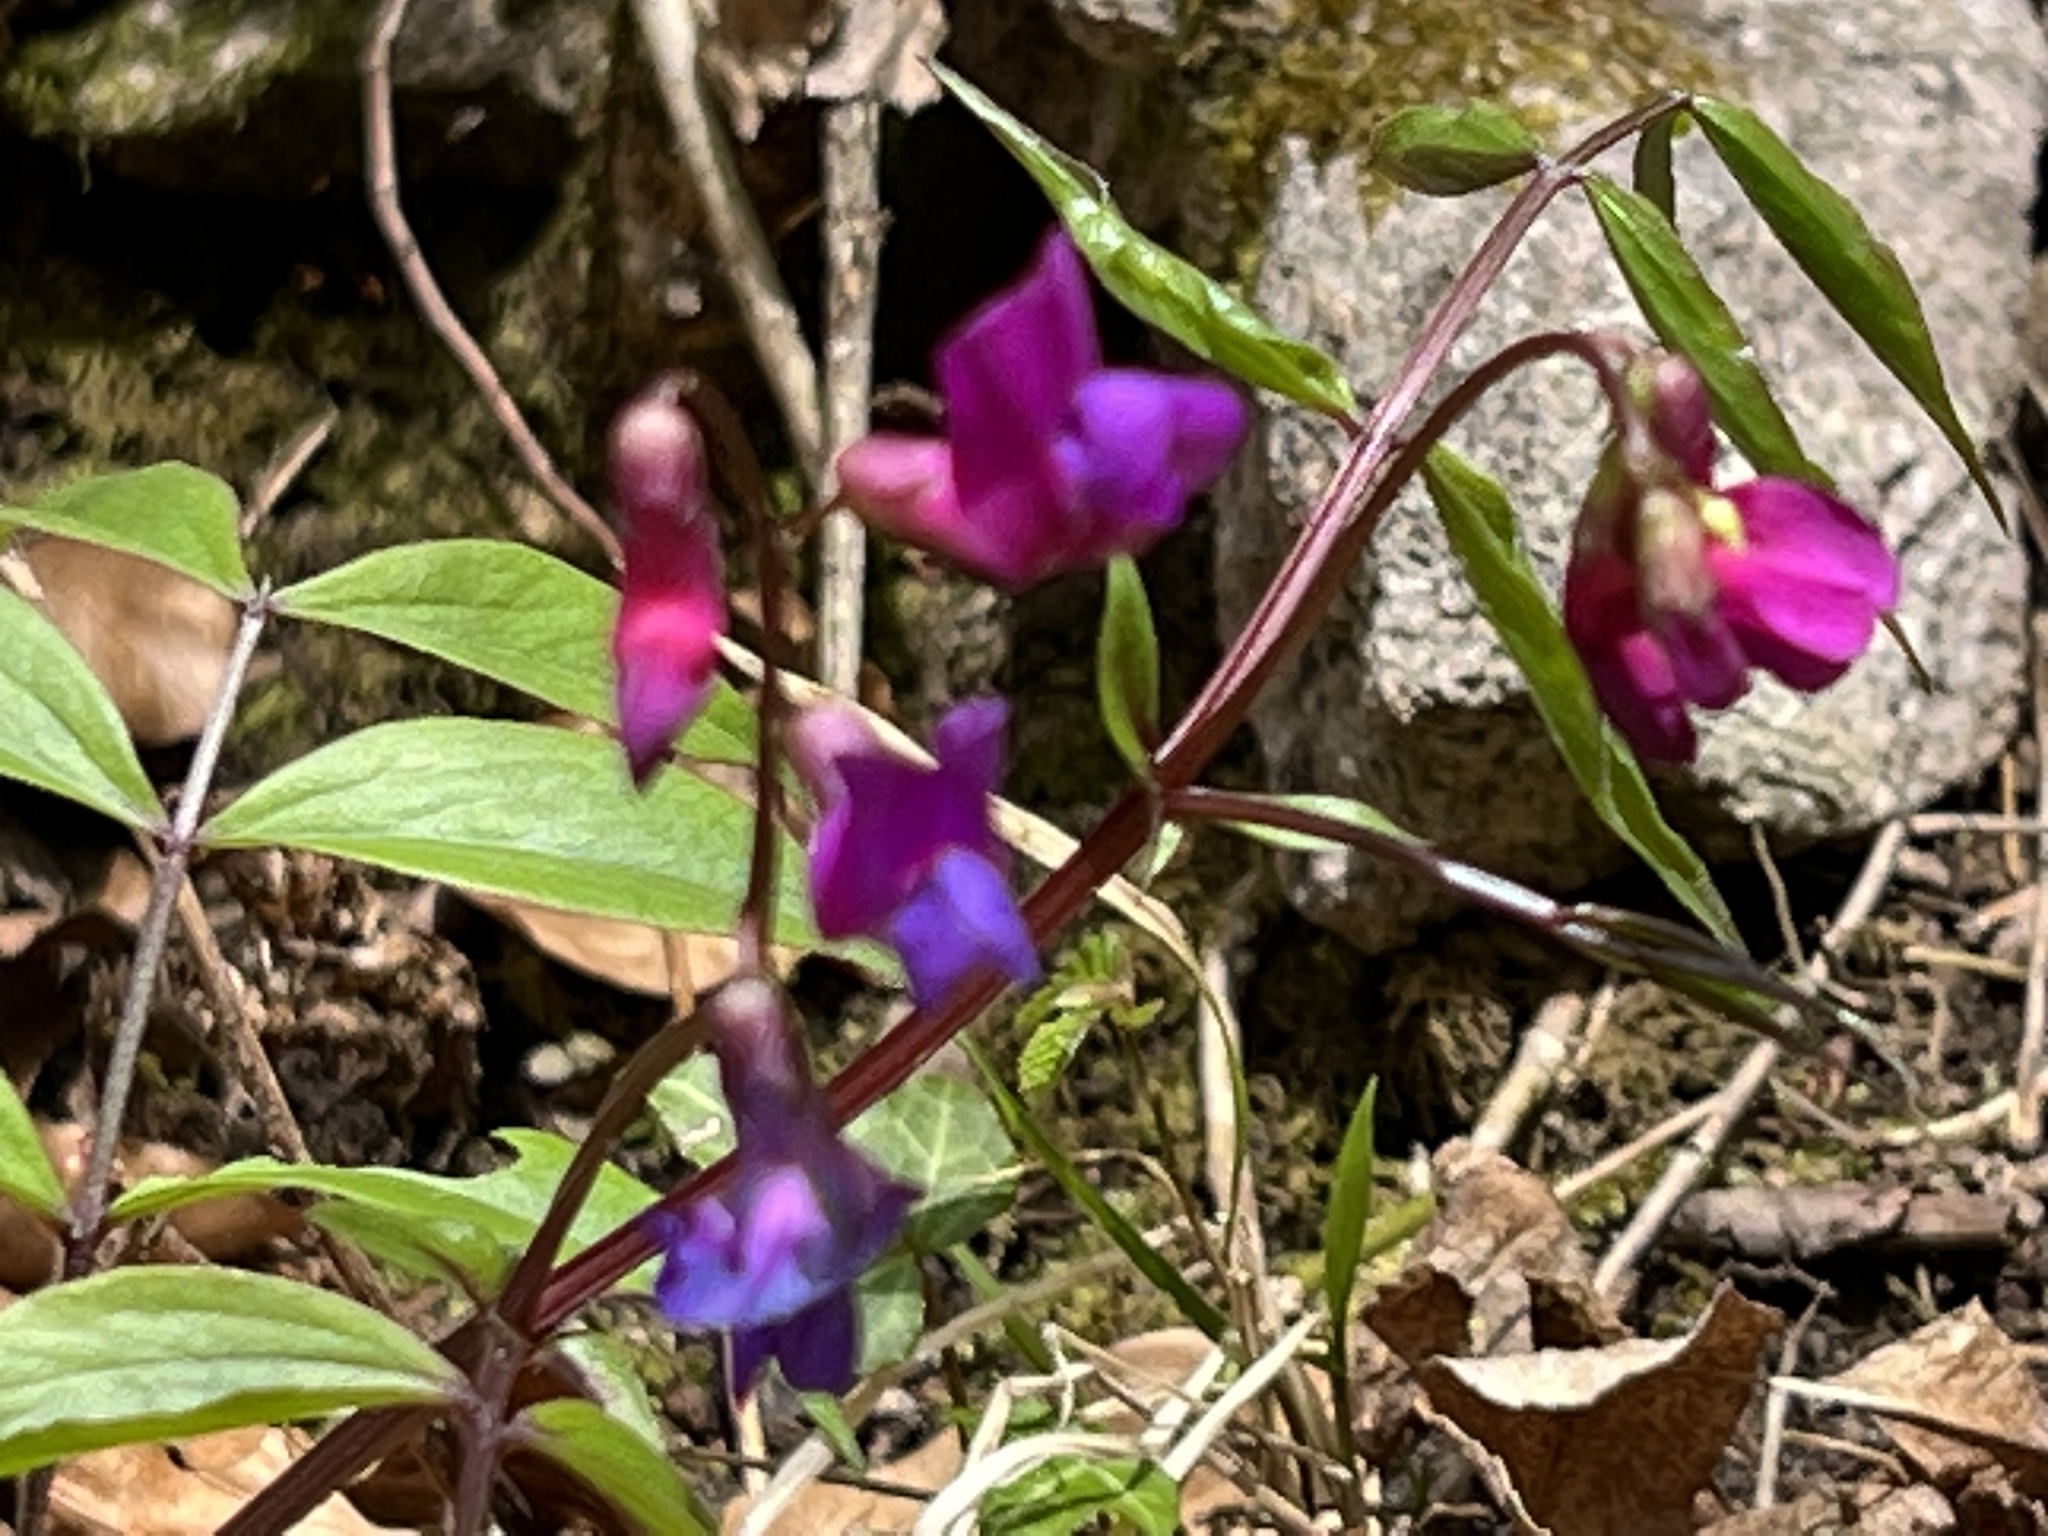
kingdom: Plantae
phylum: Tracheophyta
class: Magnoliopsida
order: Fabales
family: Fabaceae
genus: Lathyrus
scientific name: Lathyrus vernus
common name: Spring pea
